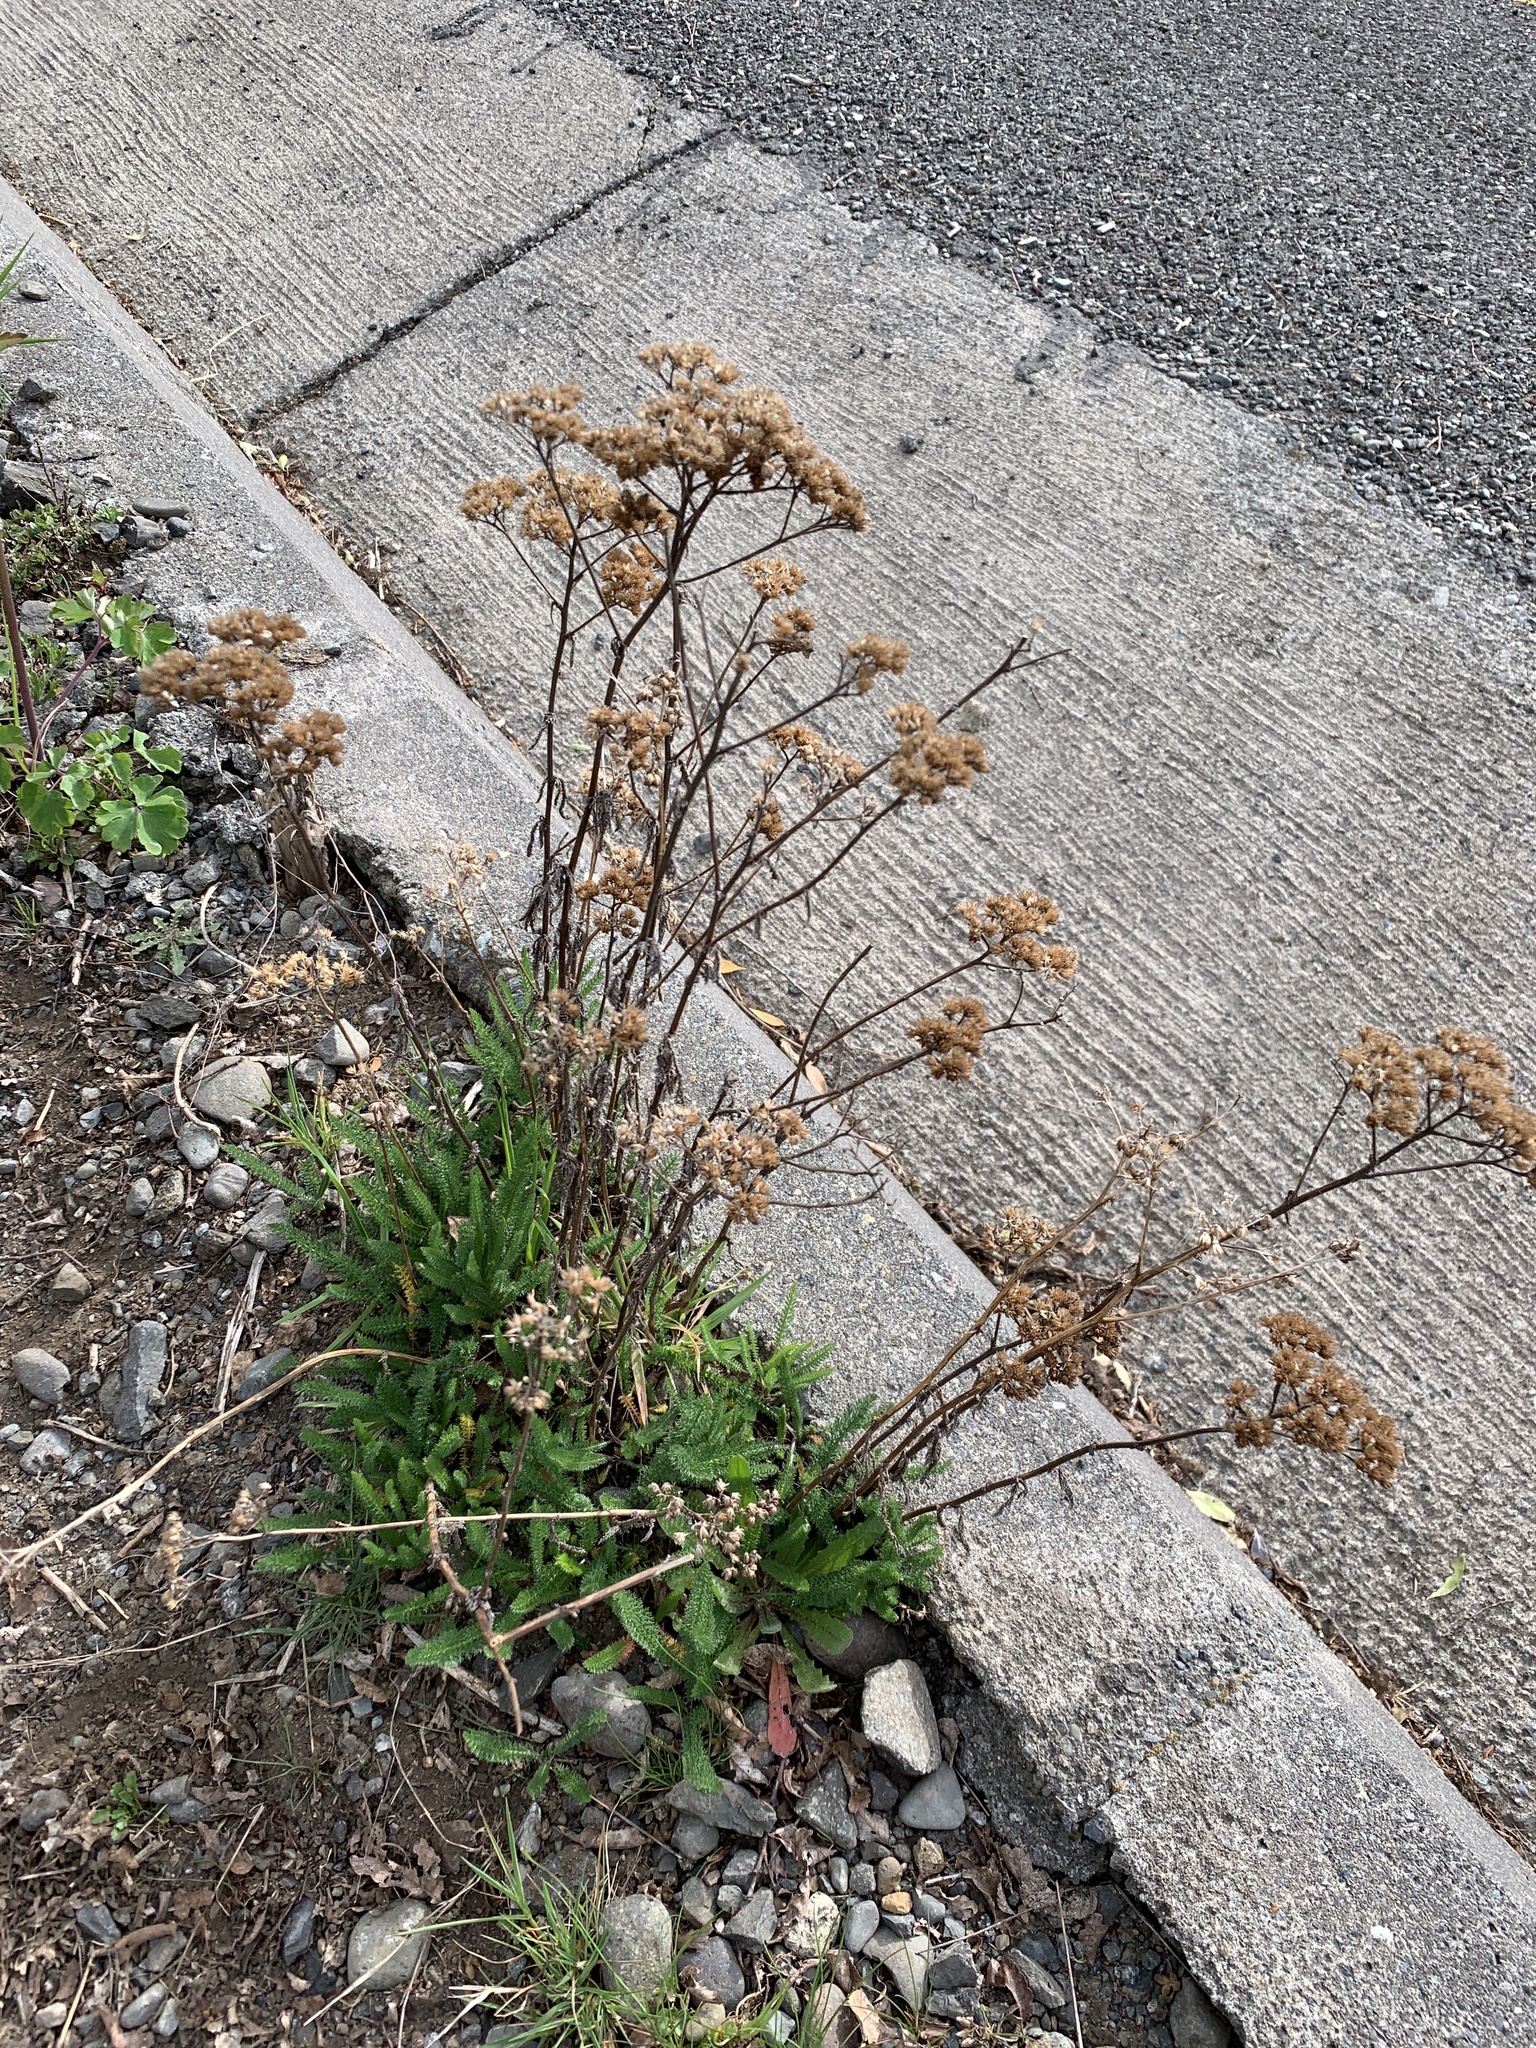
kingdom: Plantae
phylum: Tracheophyta
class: Magnoliopsida
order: Asterales
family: Asteraceae
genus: Achillea
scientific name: Achillea millefolium
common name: Yarrow
